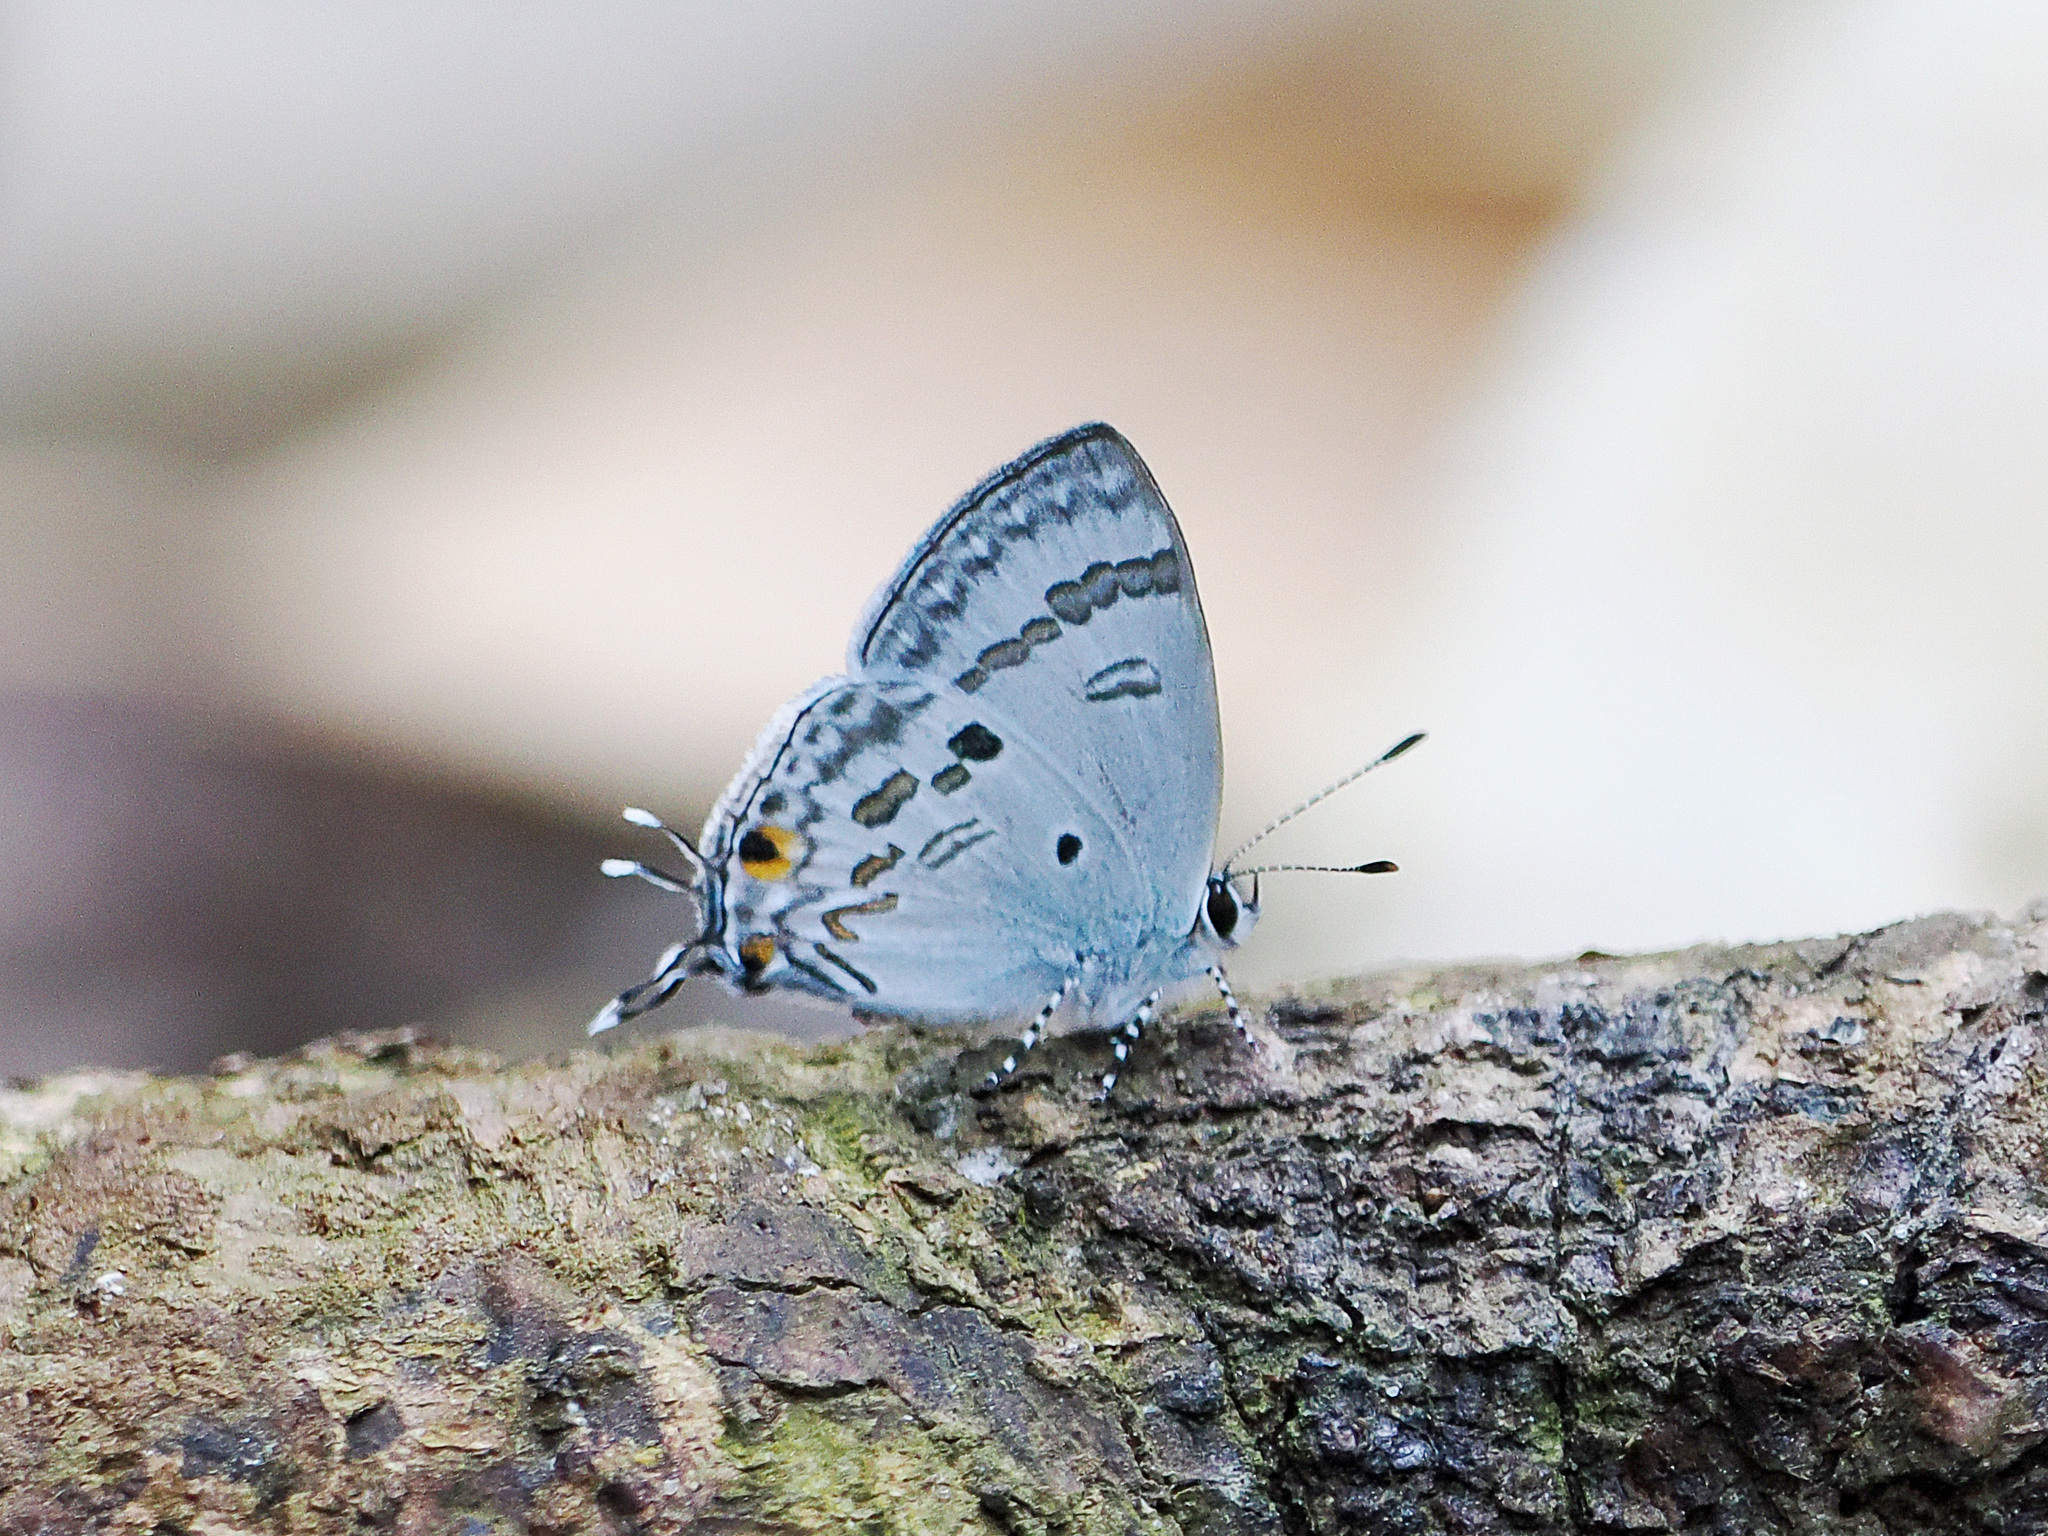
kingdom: Animalia
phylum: Arthropoda
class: Insecta
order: Lepidoptera
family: Lycaenidae
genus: Chliaria
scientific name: Chliaria kina
